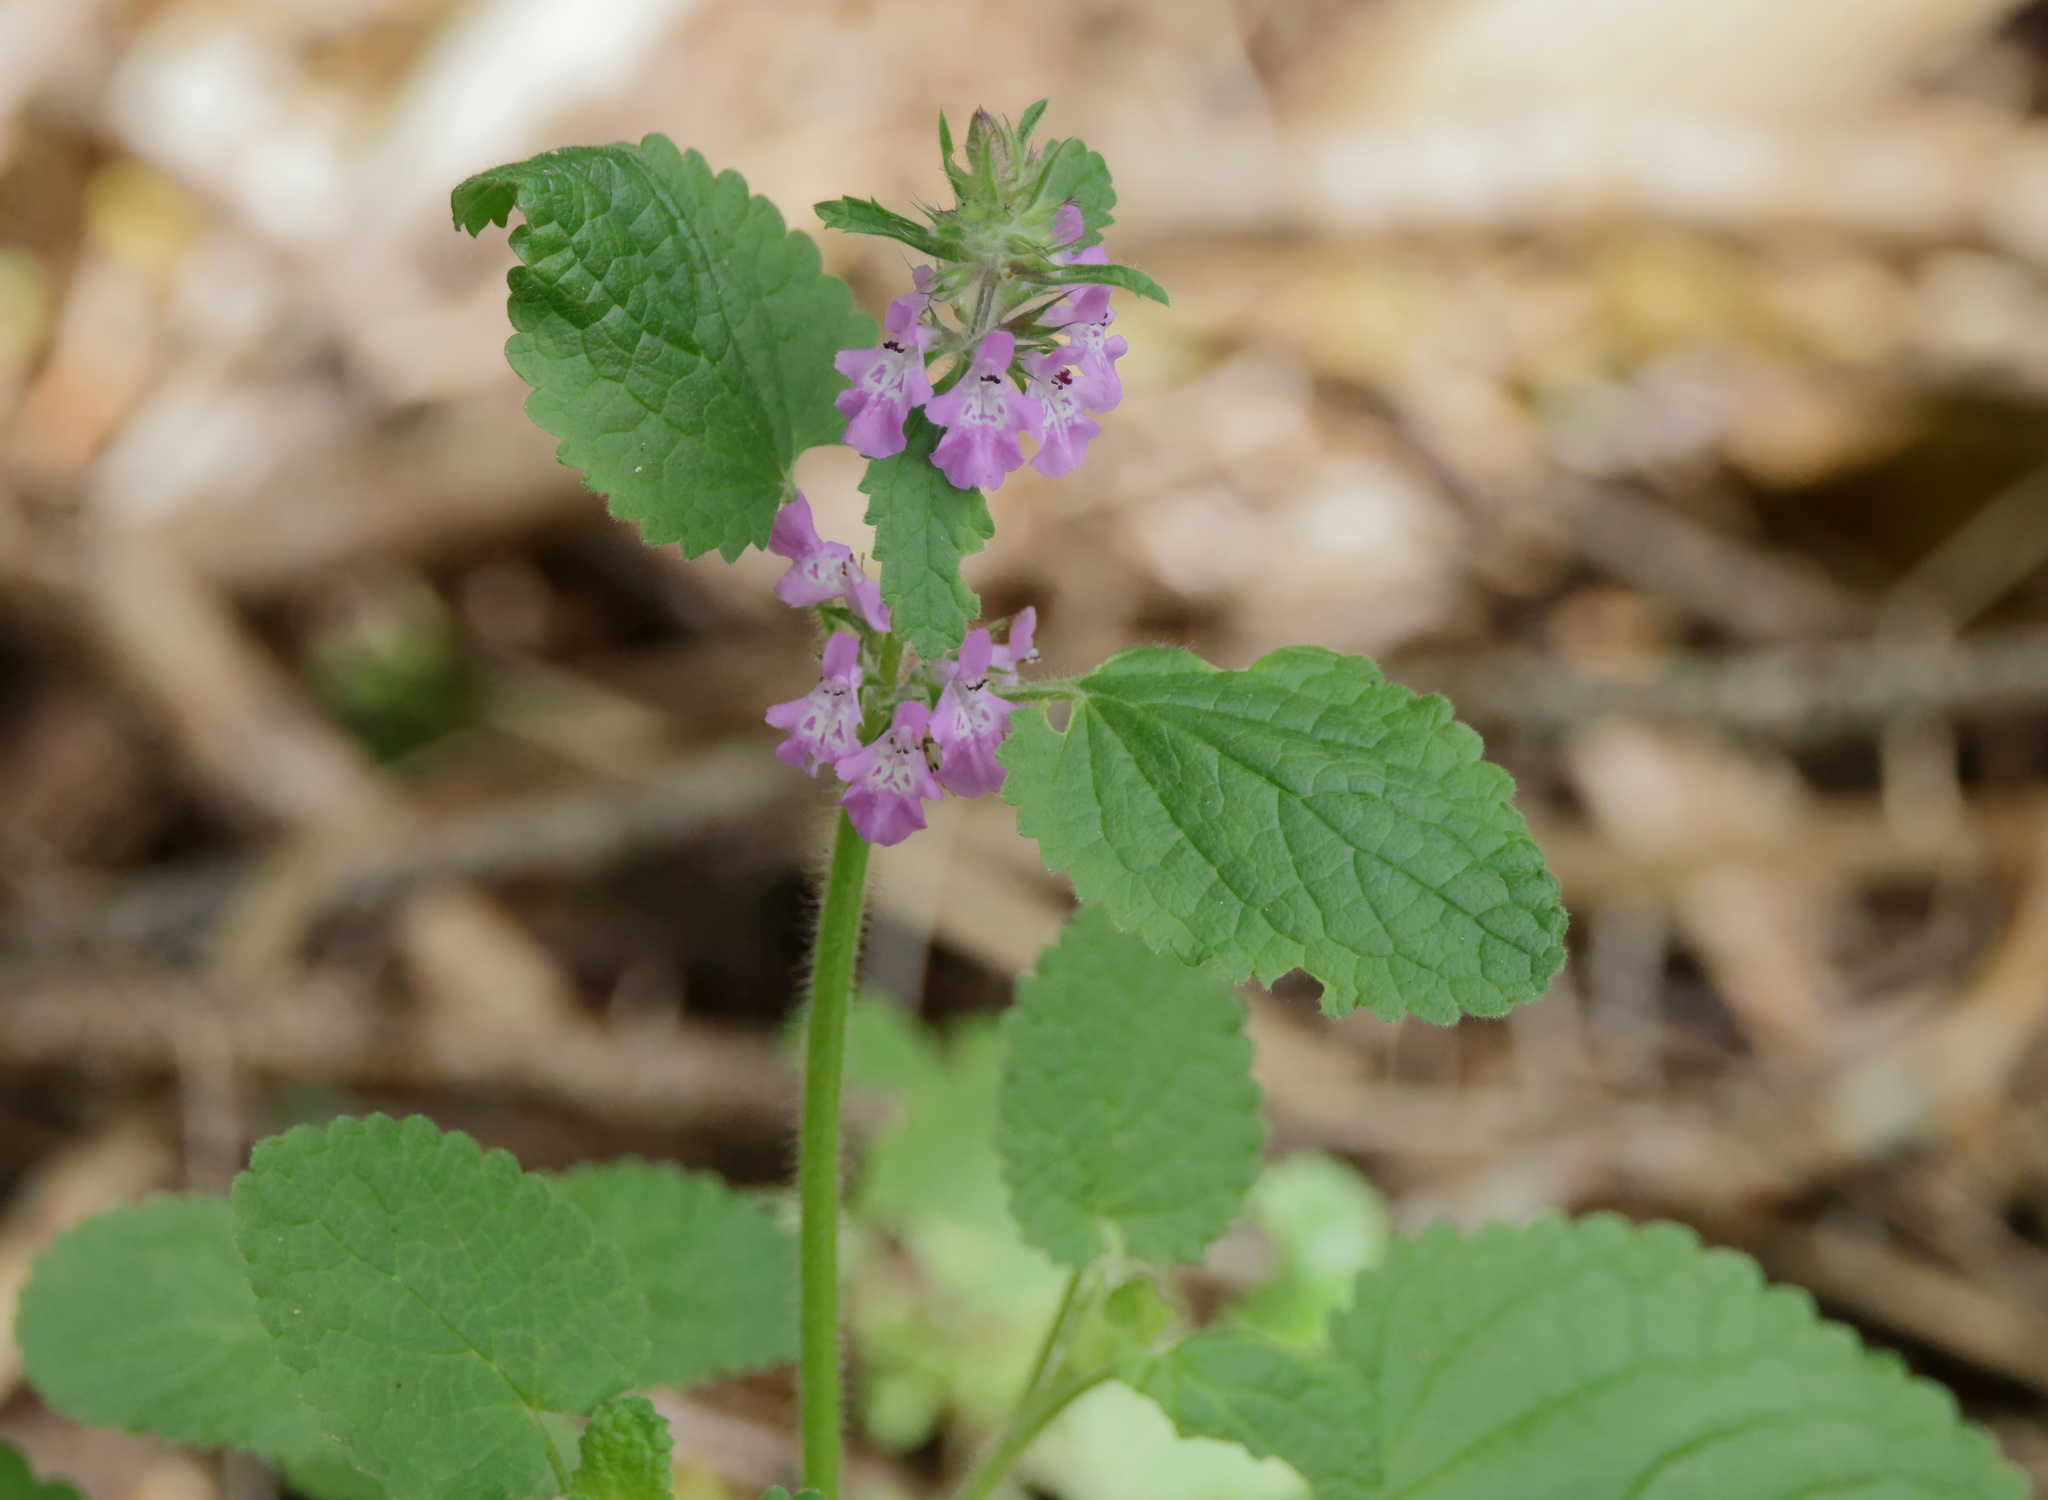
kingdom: Plantae
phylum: Tracheophyta
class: Magnoliopsida
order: Lamiales
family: Lamiaceae
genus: Stachys
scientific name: Stachys drummondii
